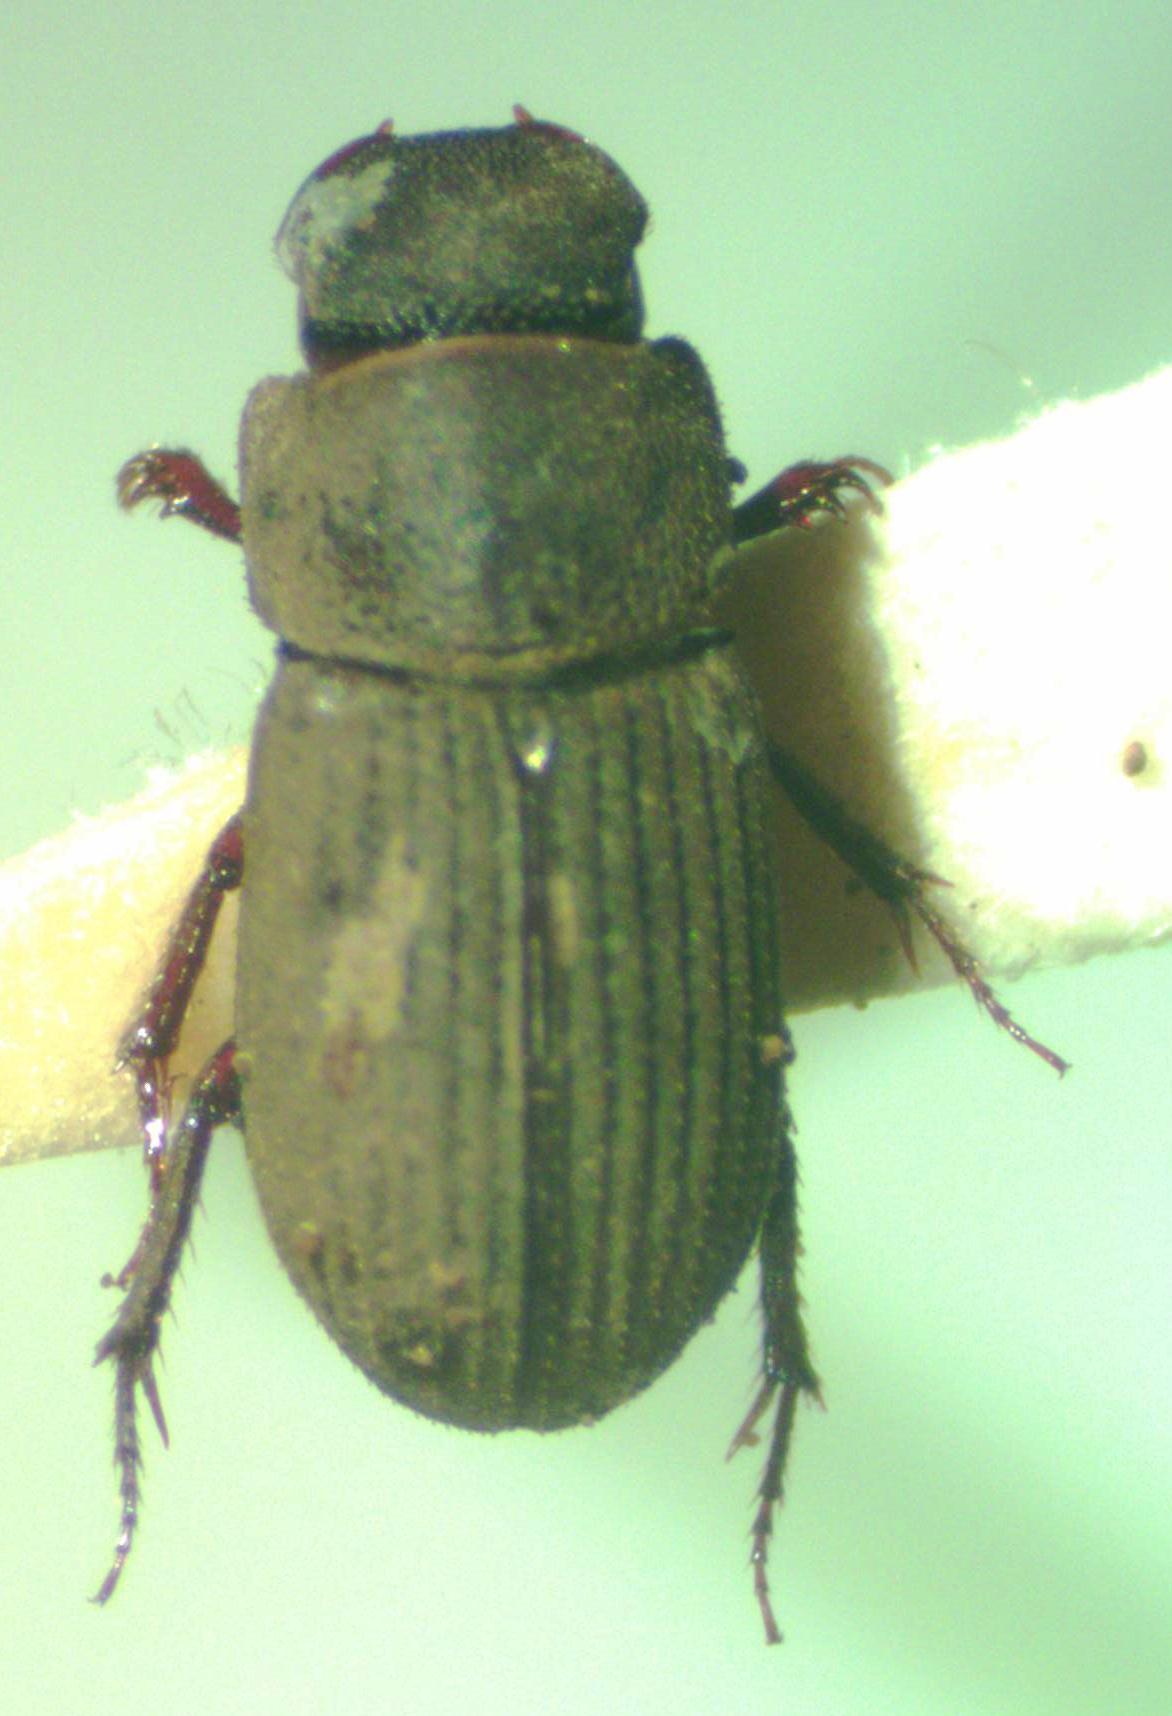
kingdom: Animalia
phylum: Arthropoda
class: Insecta
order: Coleoptera
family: Scarabaeidae
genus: Ataenius
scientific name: Ataenius imbricatus
